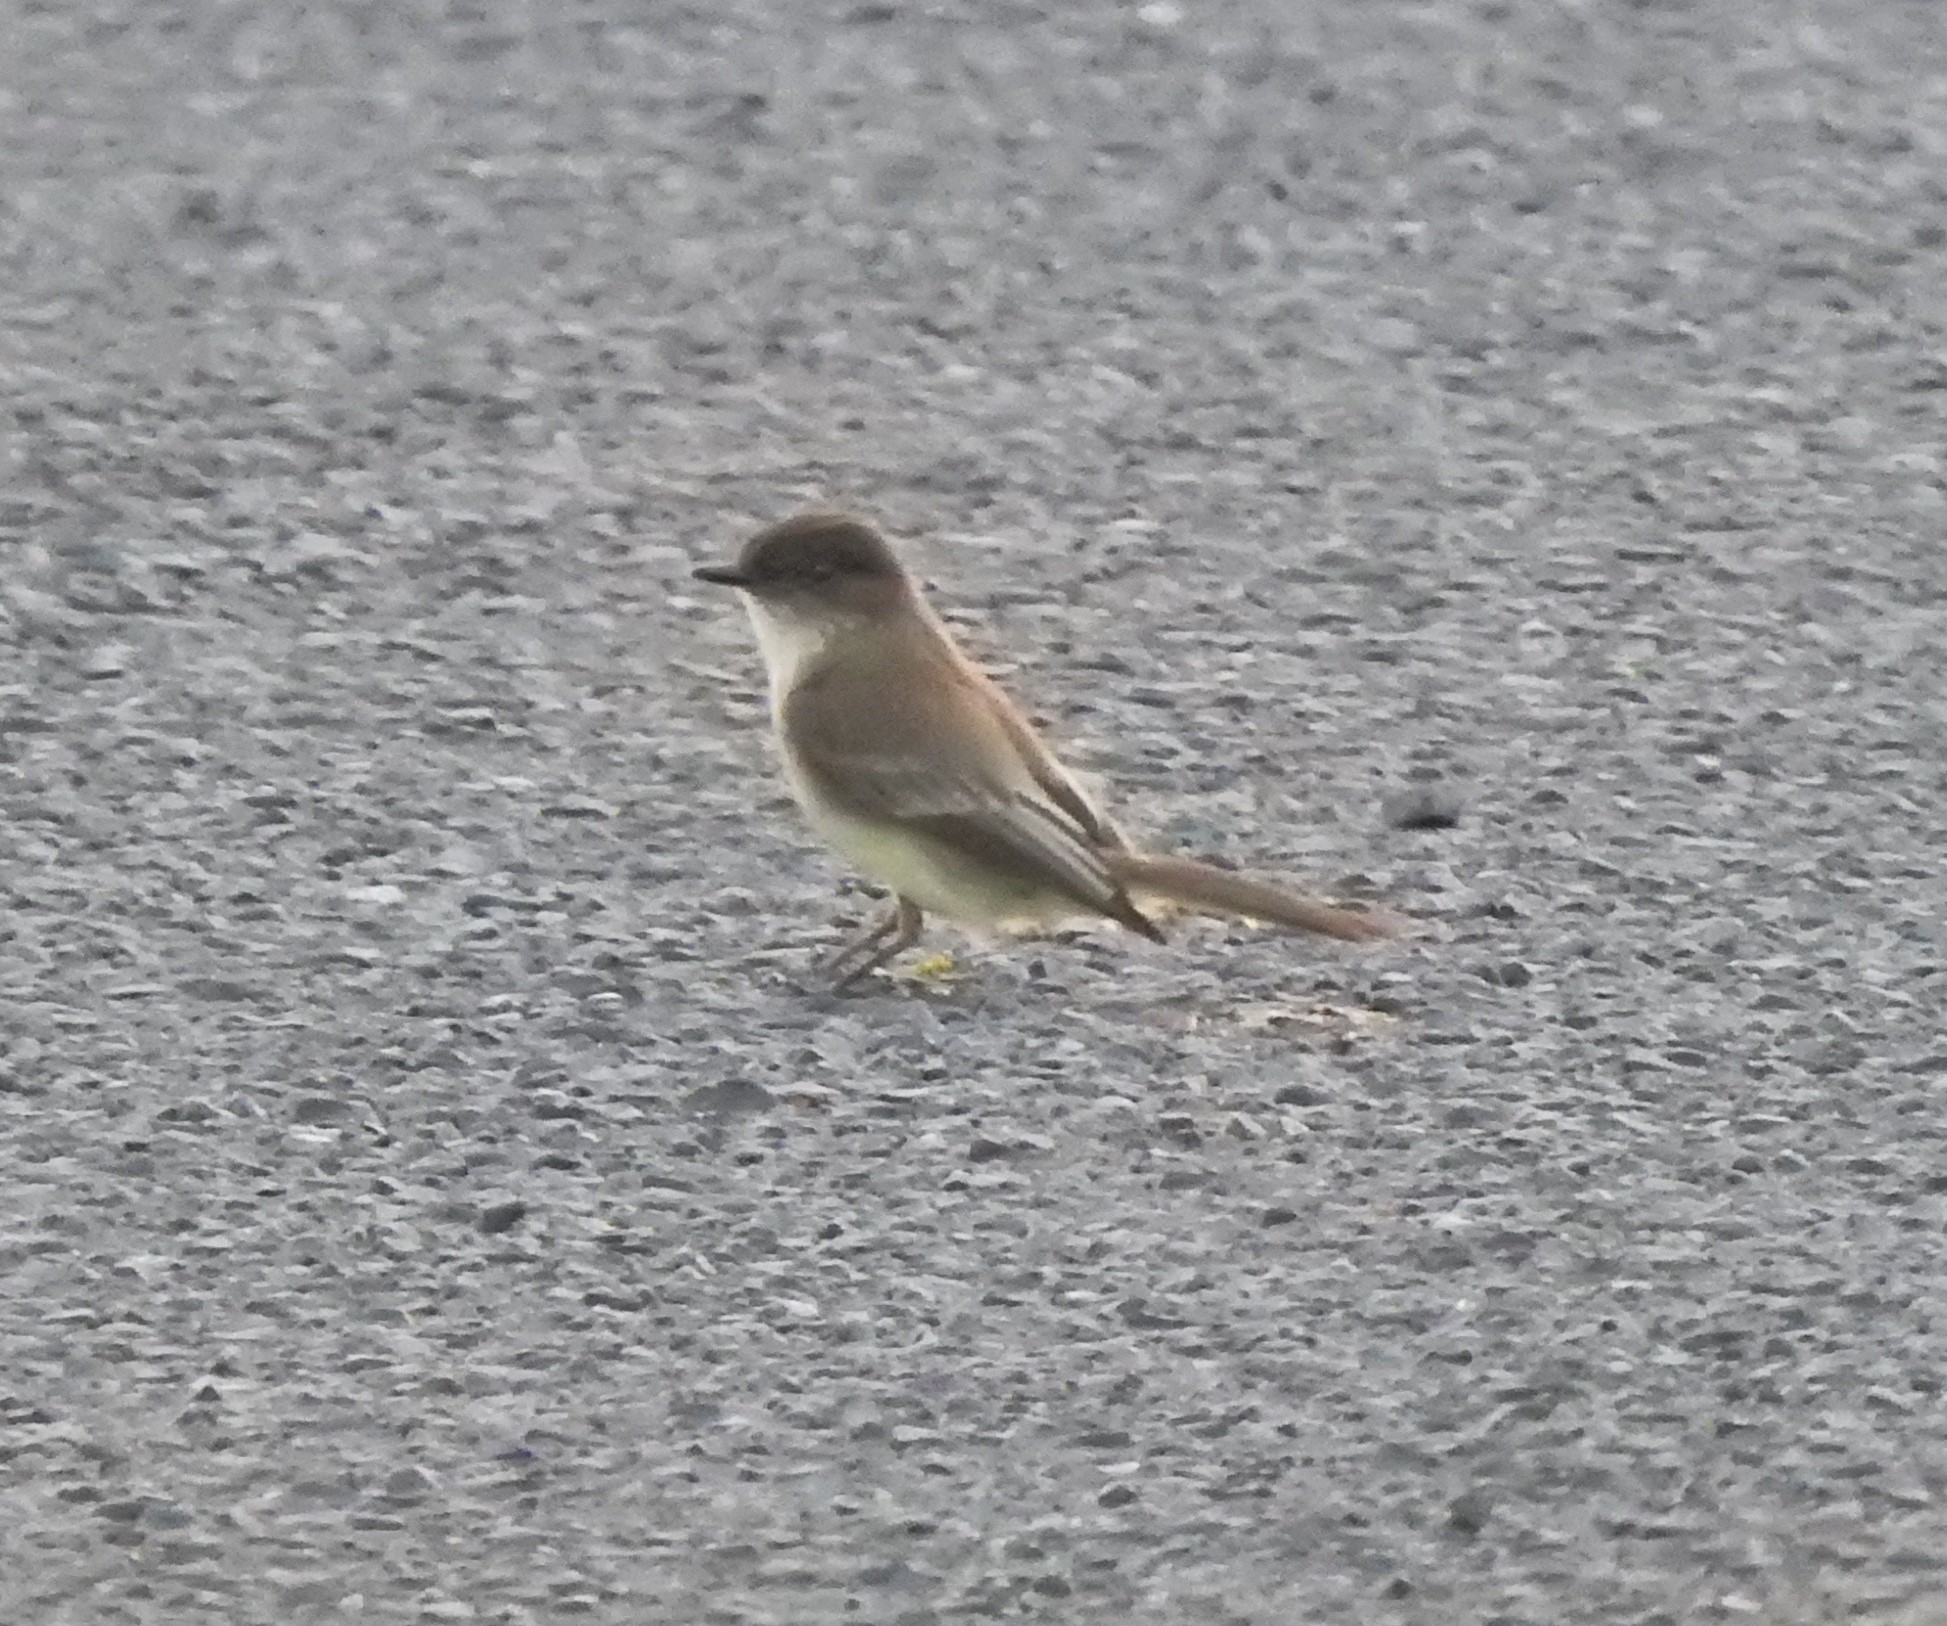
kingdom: Animalia
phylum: Chordata
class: Aves
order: Passeriformes
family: Tyrannidae
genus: Sayornis
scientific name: Sayornis phoebe
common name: Eastern phoebe
